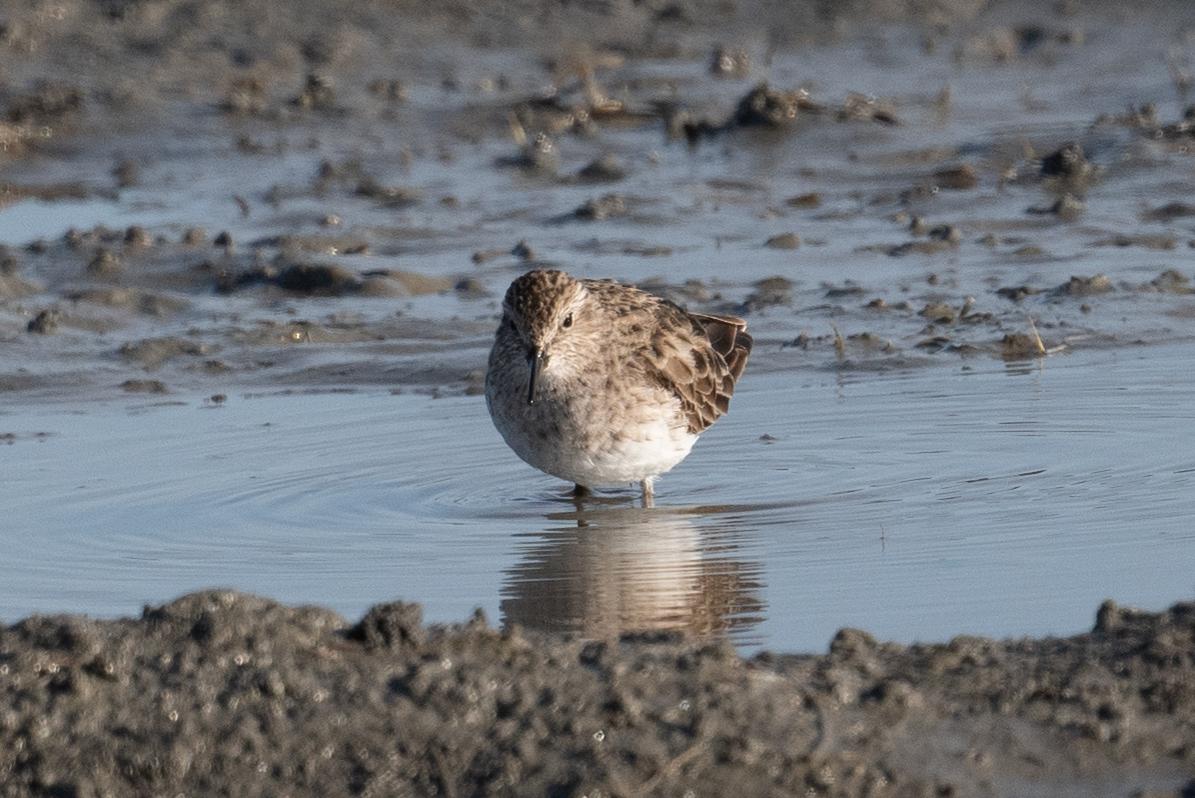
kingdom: Animalia
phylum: Chordata
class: Aves
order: Charadriiformes
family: Scolopacidae
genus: Calidris
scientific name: Calidris minutilla
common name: Least sandpiper
